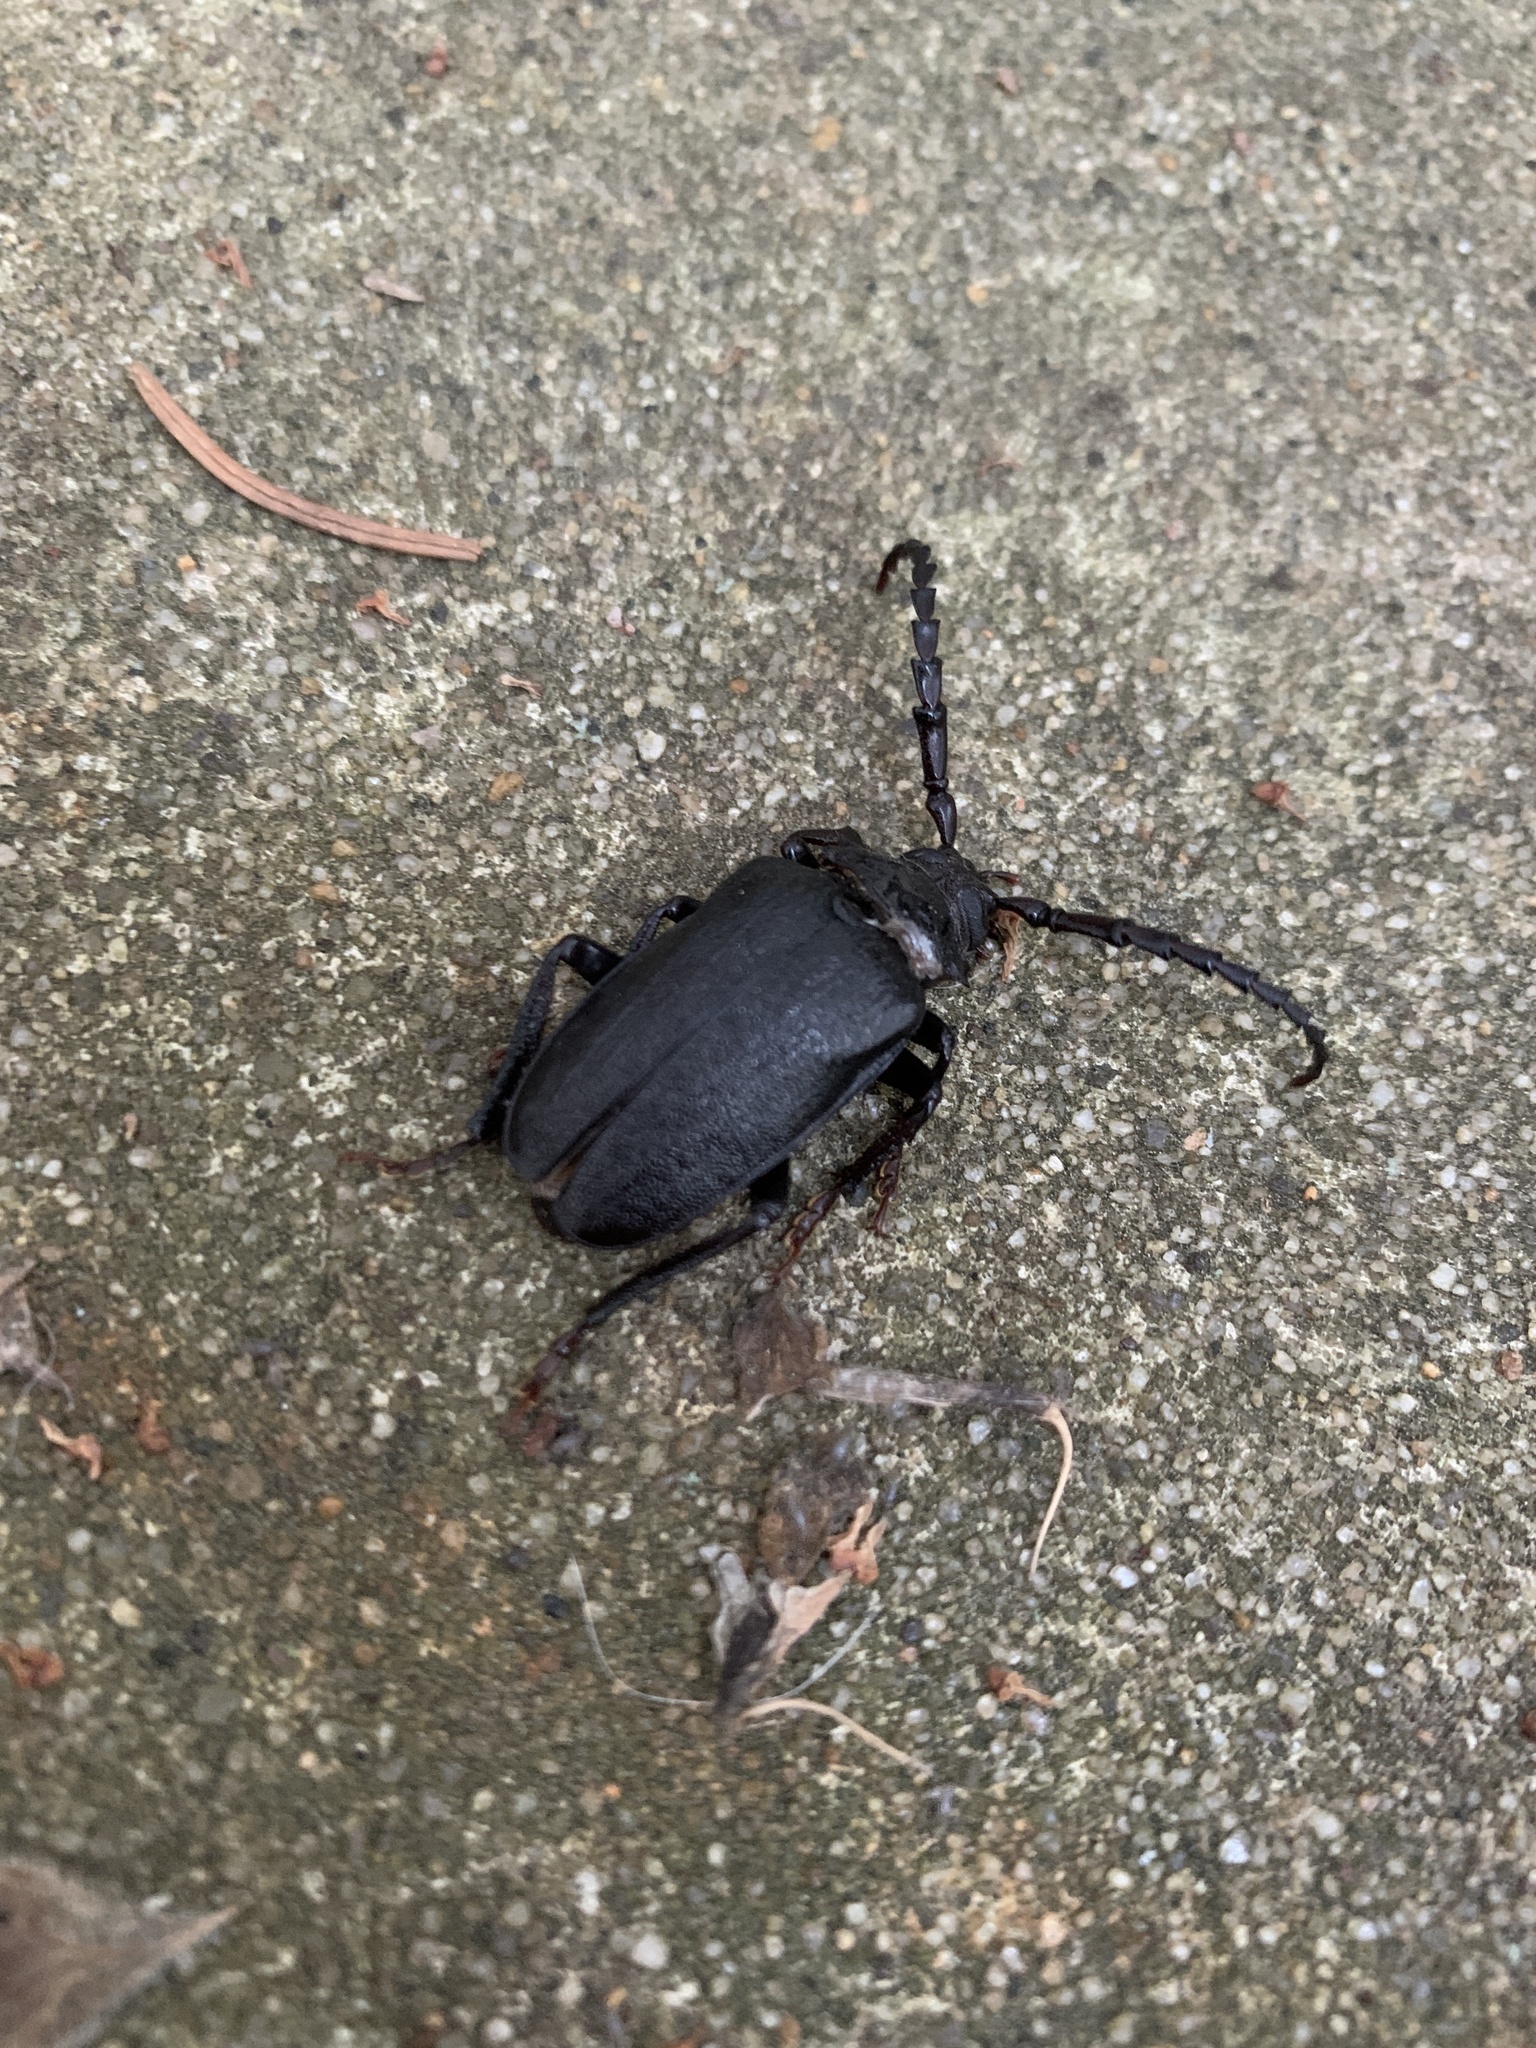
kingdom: Animalia
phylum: Arthropoda
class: Insecta
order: Coleoptera
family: Cerambycidae
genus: Prionus
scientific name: Prionus laticollis
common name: Broad necked prionus
